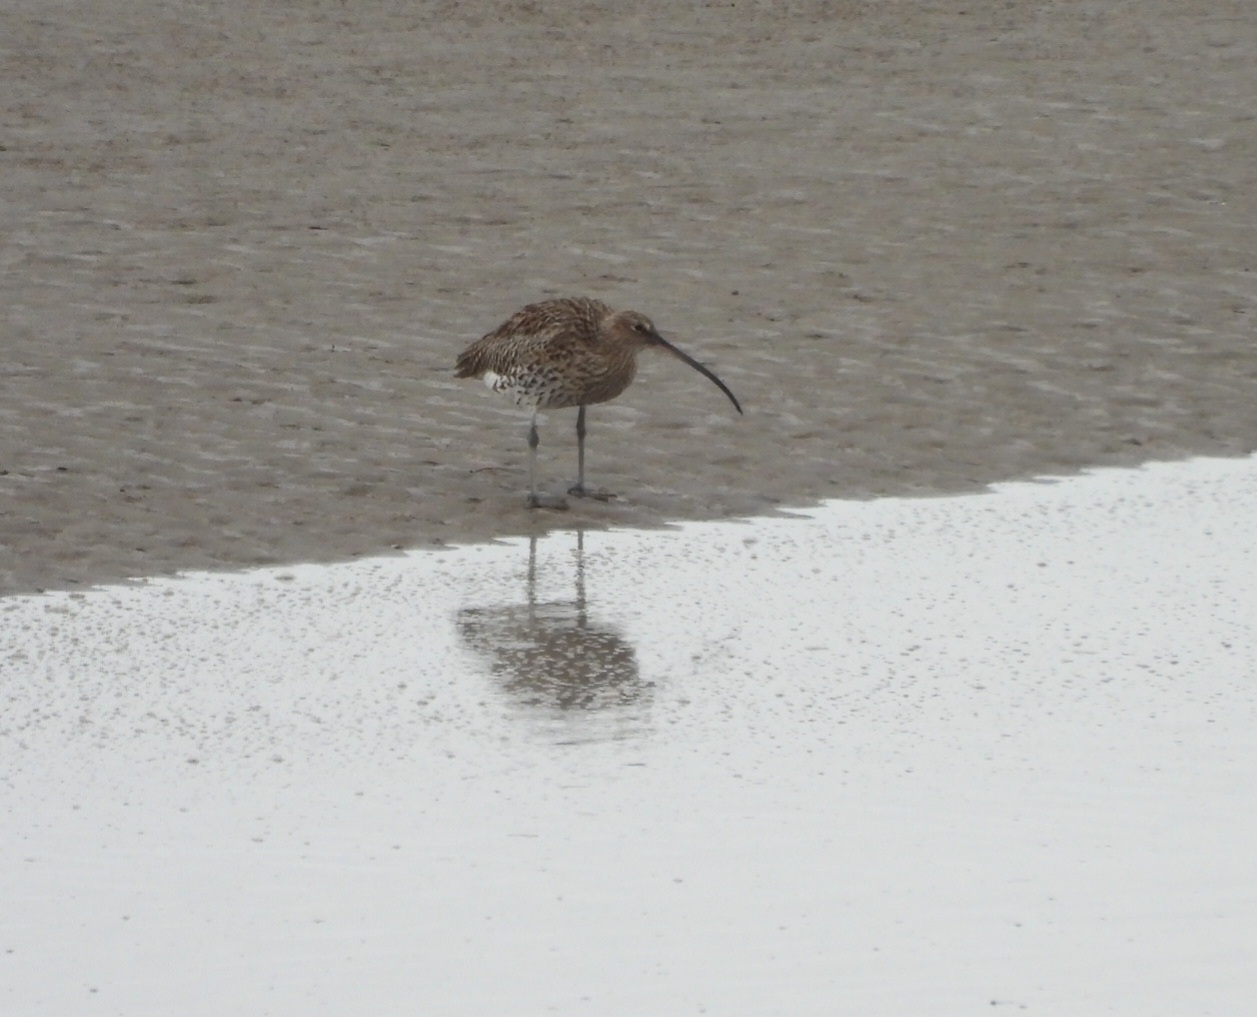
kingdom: Animalia
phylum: Chordata
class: Aves
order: Charadriiformes
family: Scolopacidae
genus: Numenius
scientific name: Numenius arquata
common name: Eurasian curlew
